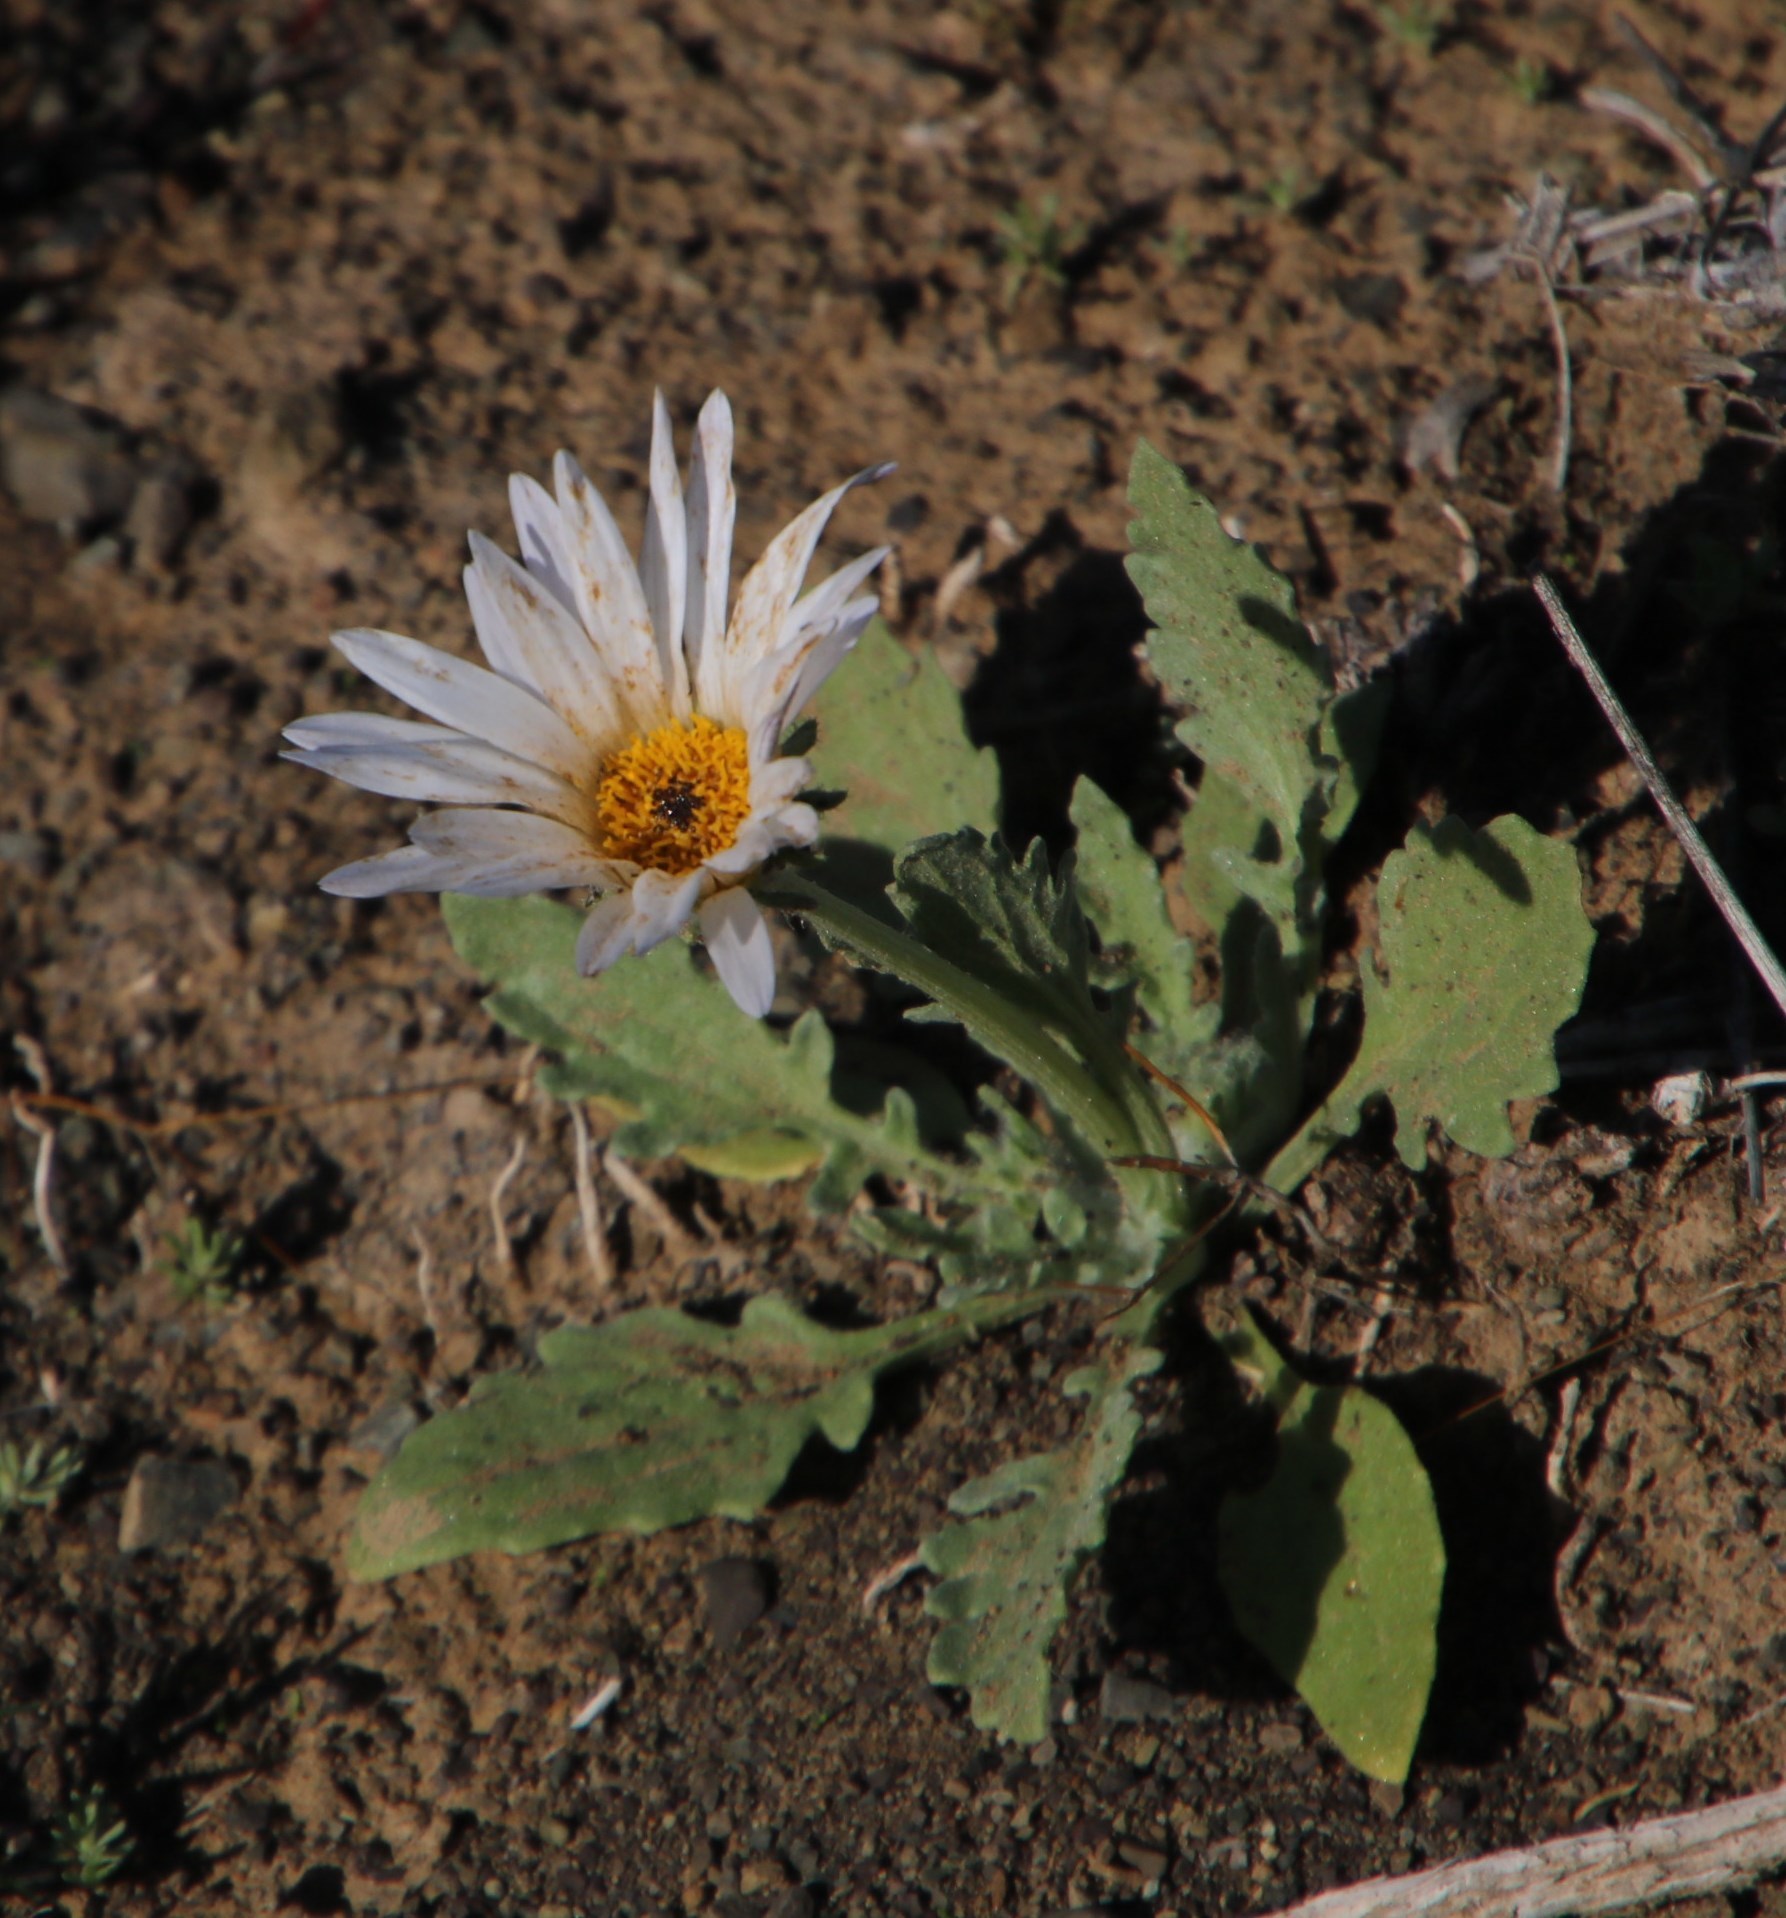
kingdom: Plantae
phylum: Tracheophyta
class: Magnoliopsida
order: Asterales
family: Asteraceae
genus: Arctotis
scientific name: Arctotis leiocarpa
